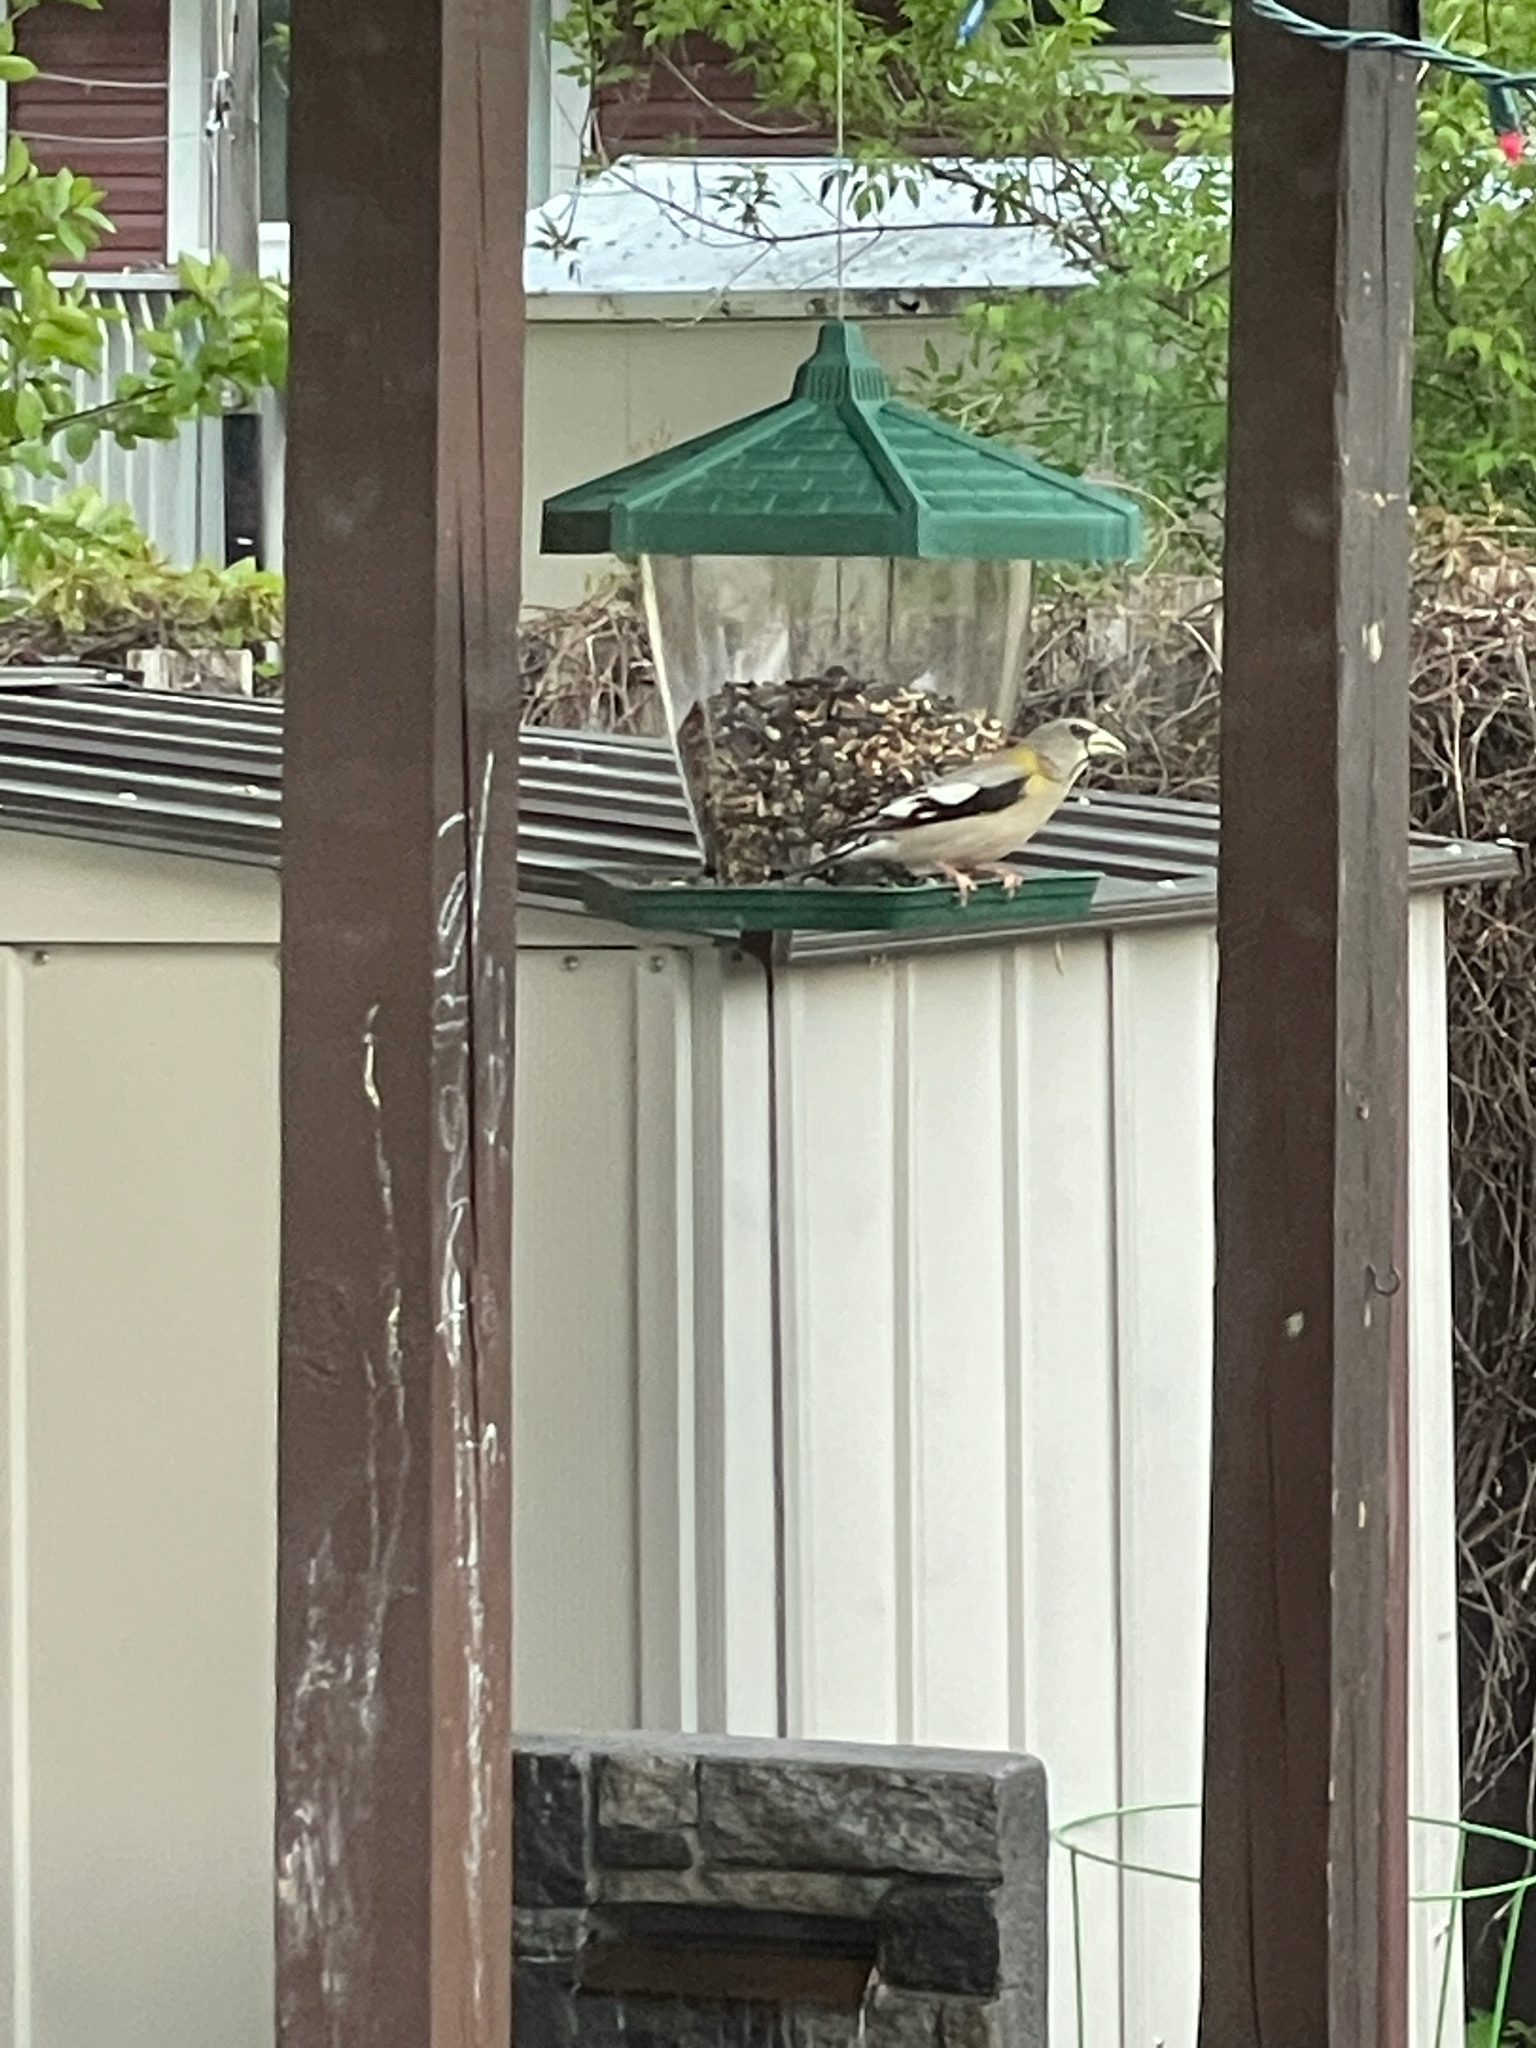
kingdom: Animalia
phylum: Chordata
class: Aves
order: Passeriformes
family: Fringillidae
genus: Hesperiphona
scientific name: Hesperiphona vespertina
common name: Evening grosbeak
